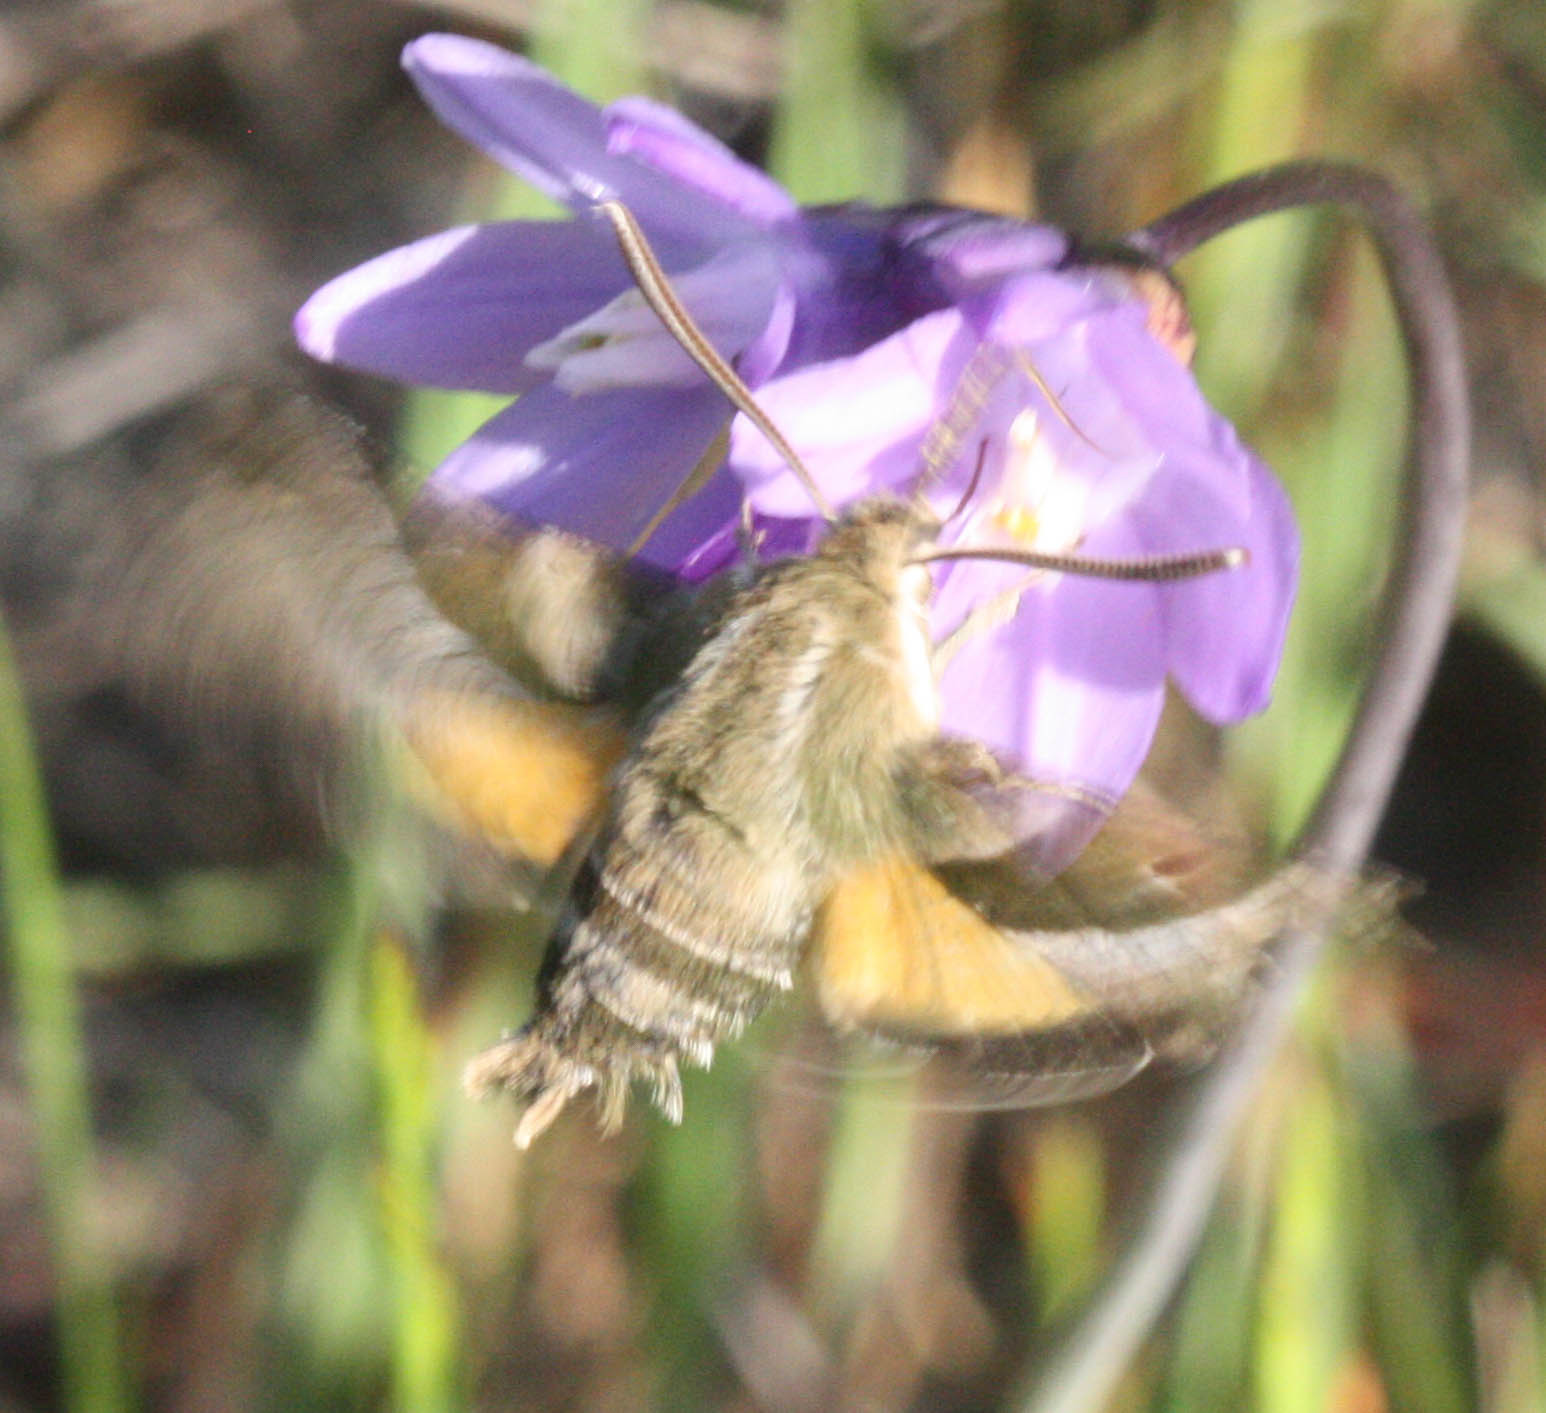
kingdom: Animalia
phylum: Arthropoda
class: Insecta
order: Lepidoptera
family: Sphingidae
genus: Proserpinus
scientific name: Proserpinus clarkiae
